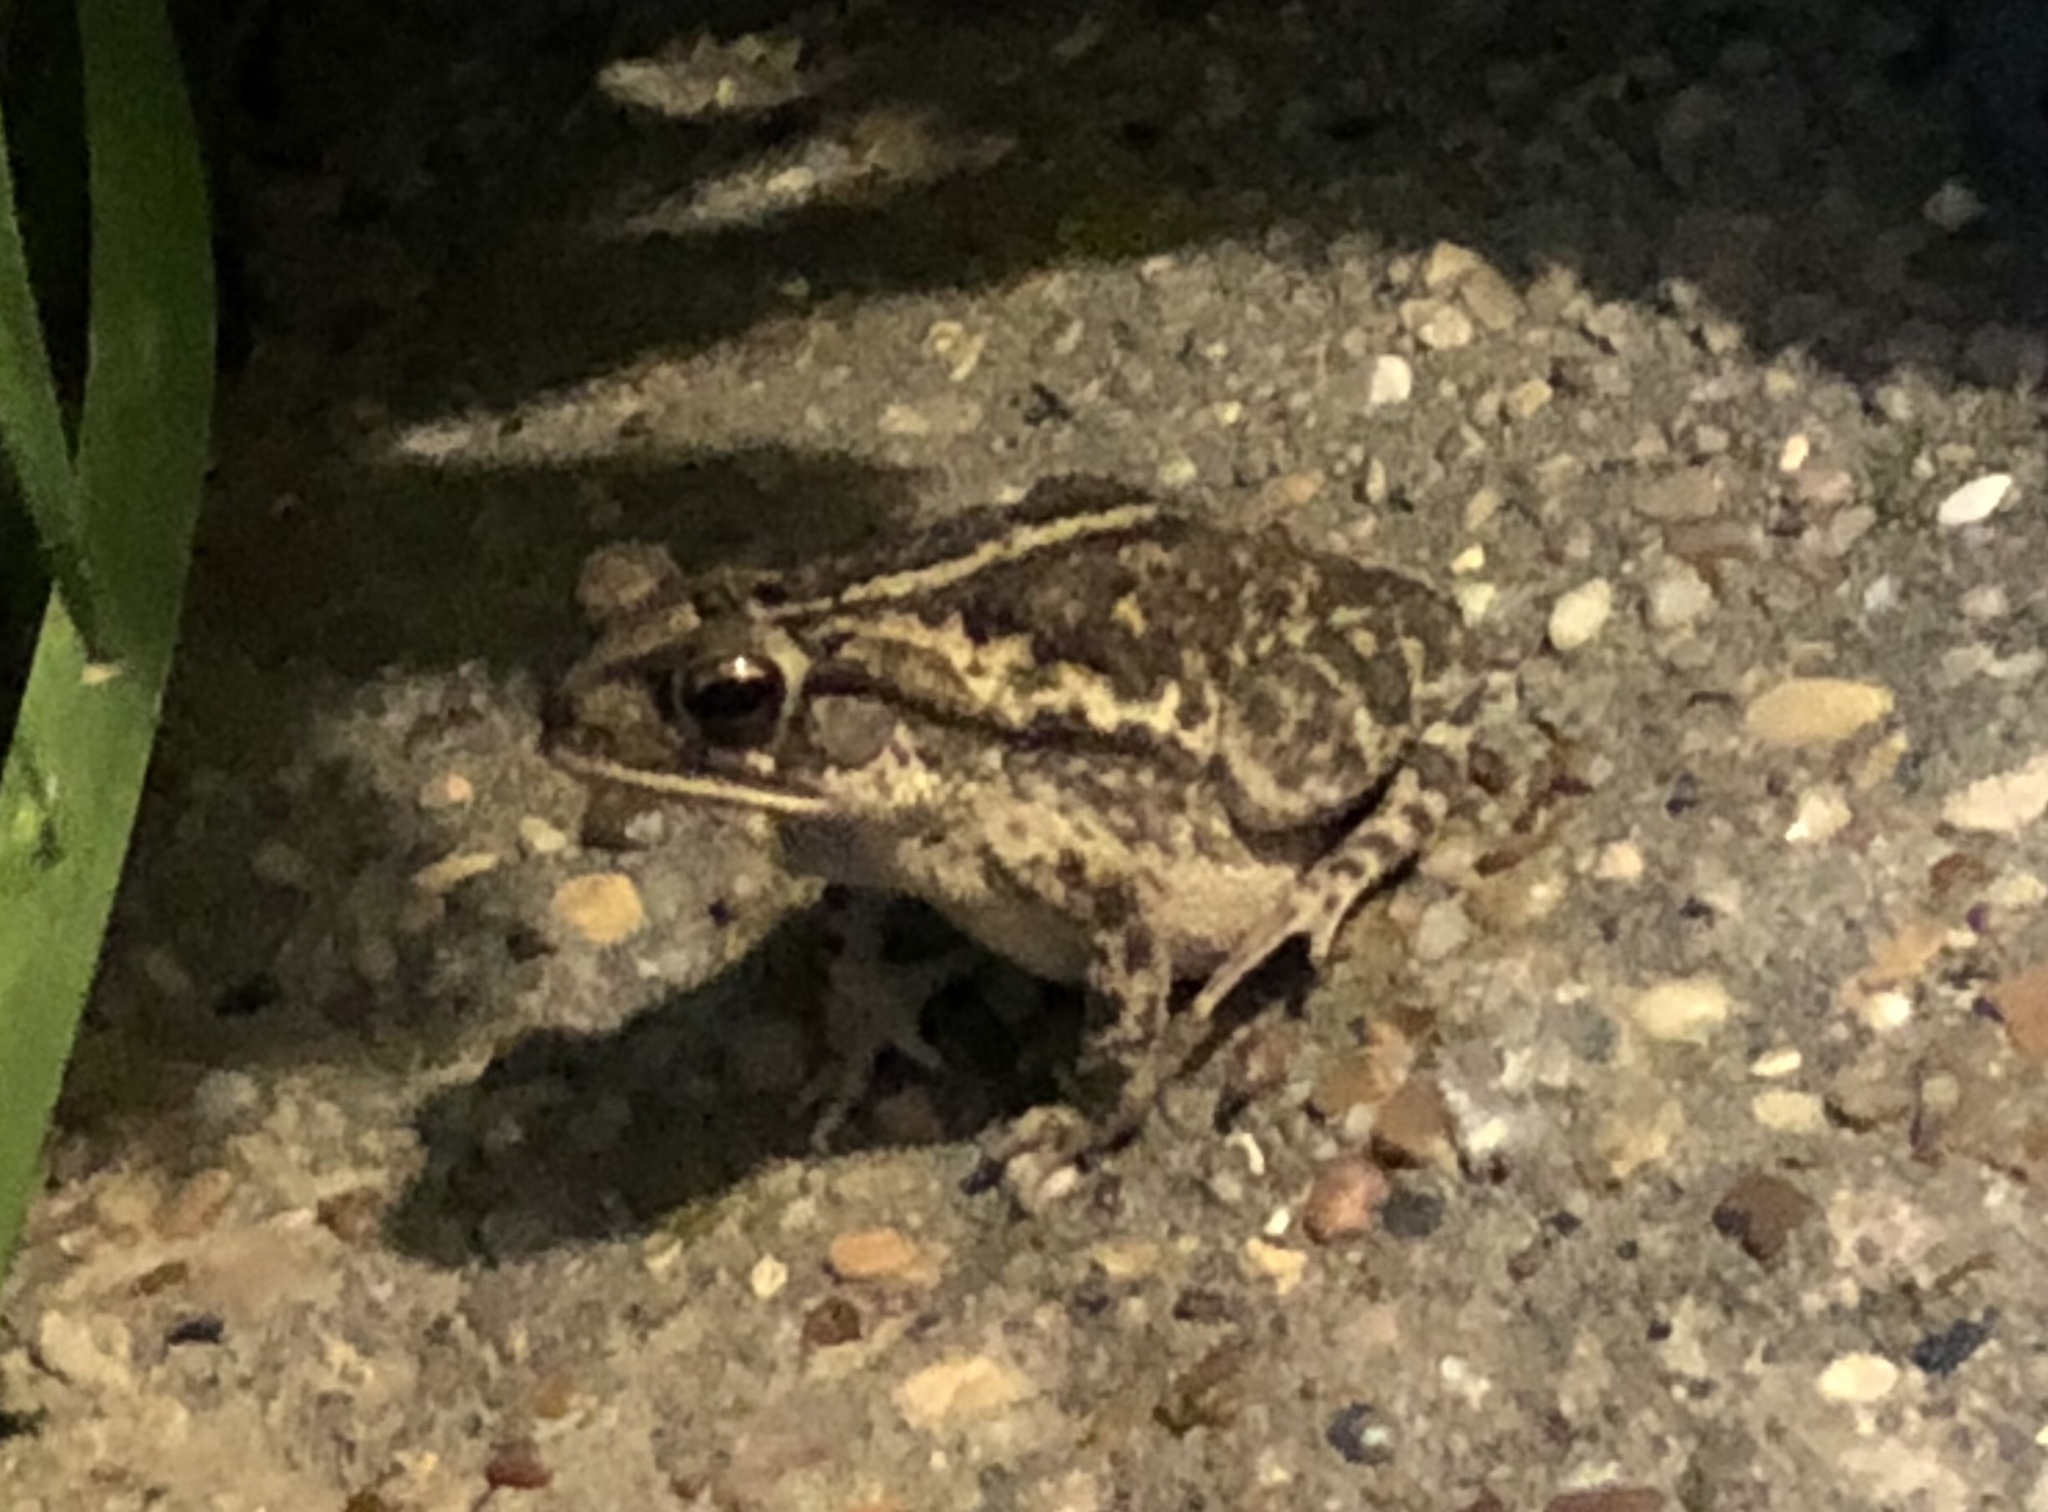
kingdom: Animalia
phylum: Chordata
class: Amphibia
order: Anura
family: Bufonidae
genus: Incilius
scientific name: Incilius nebulifer
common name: Gulf coast toad
